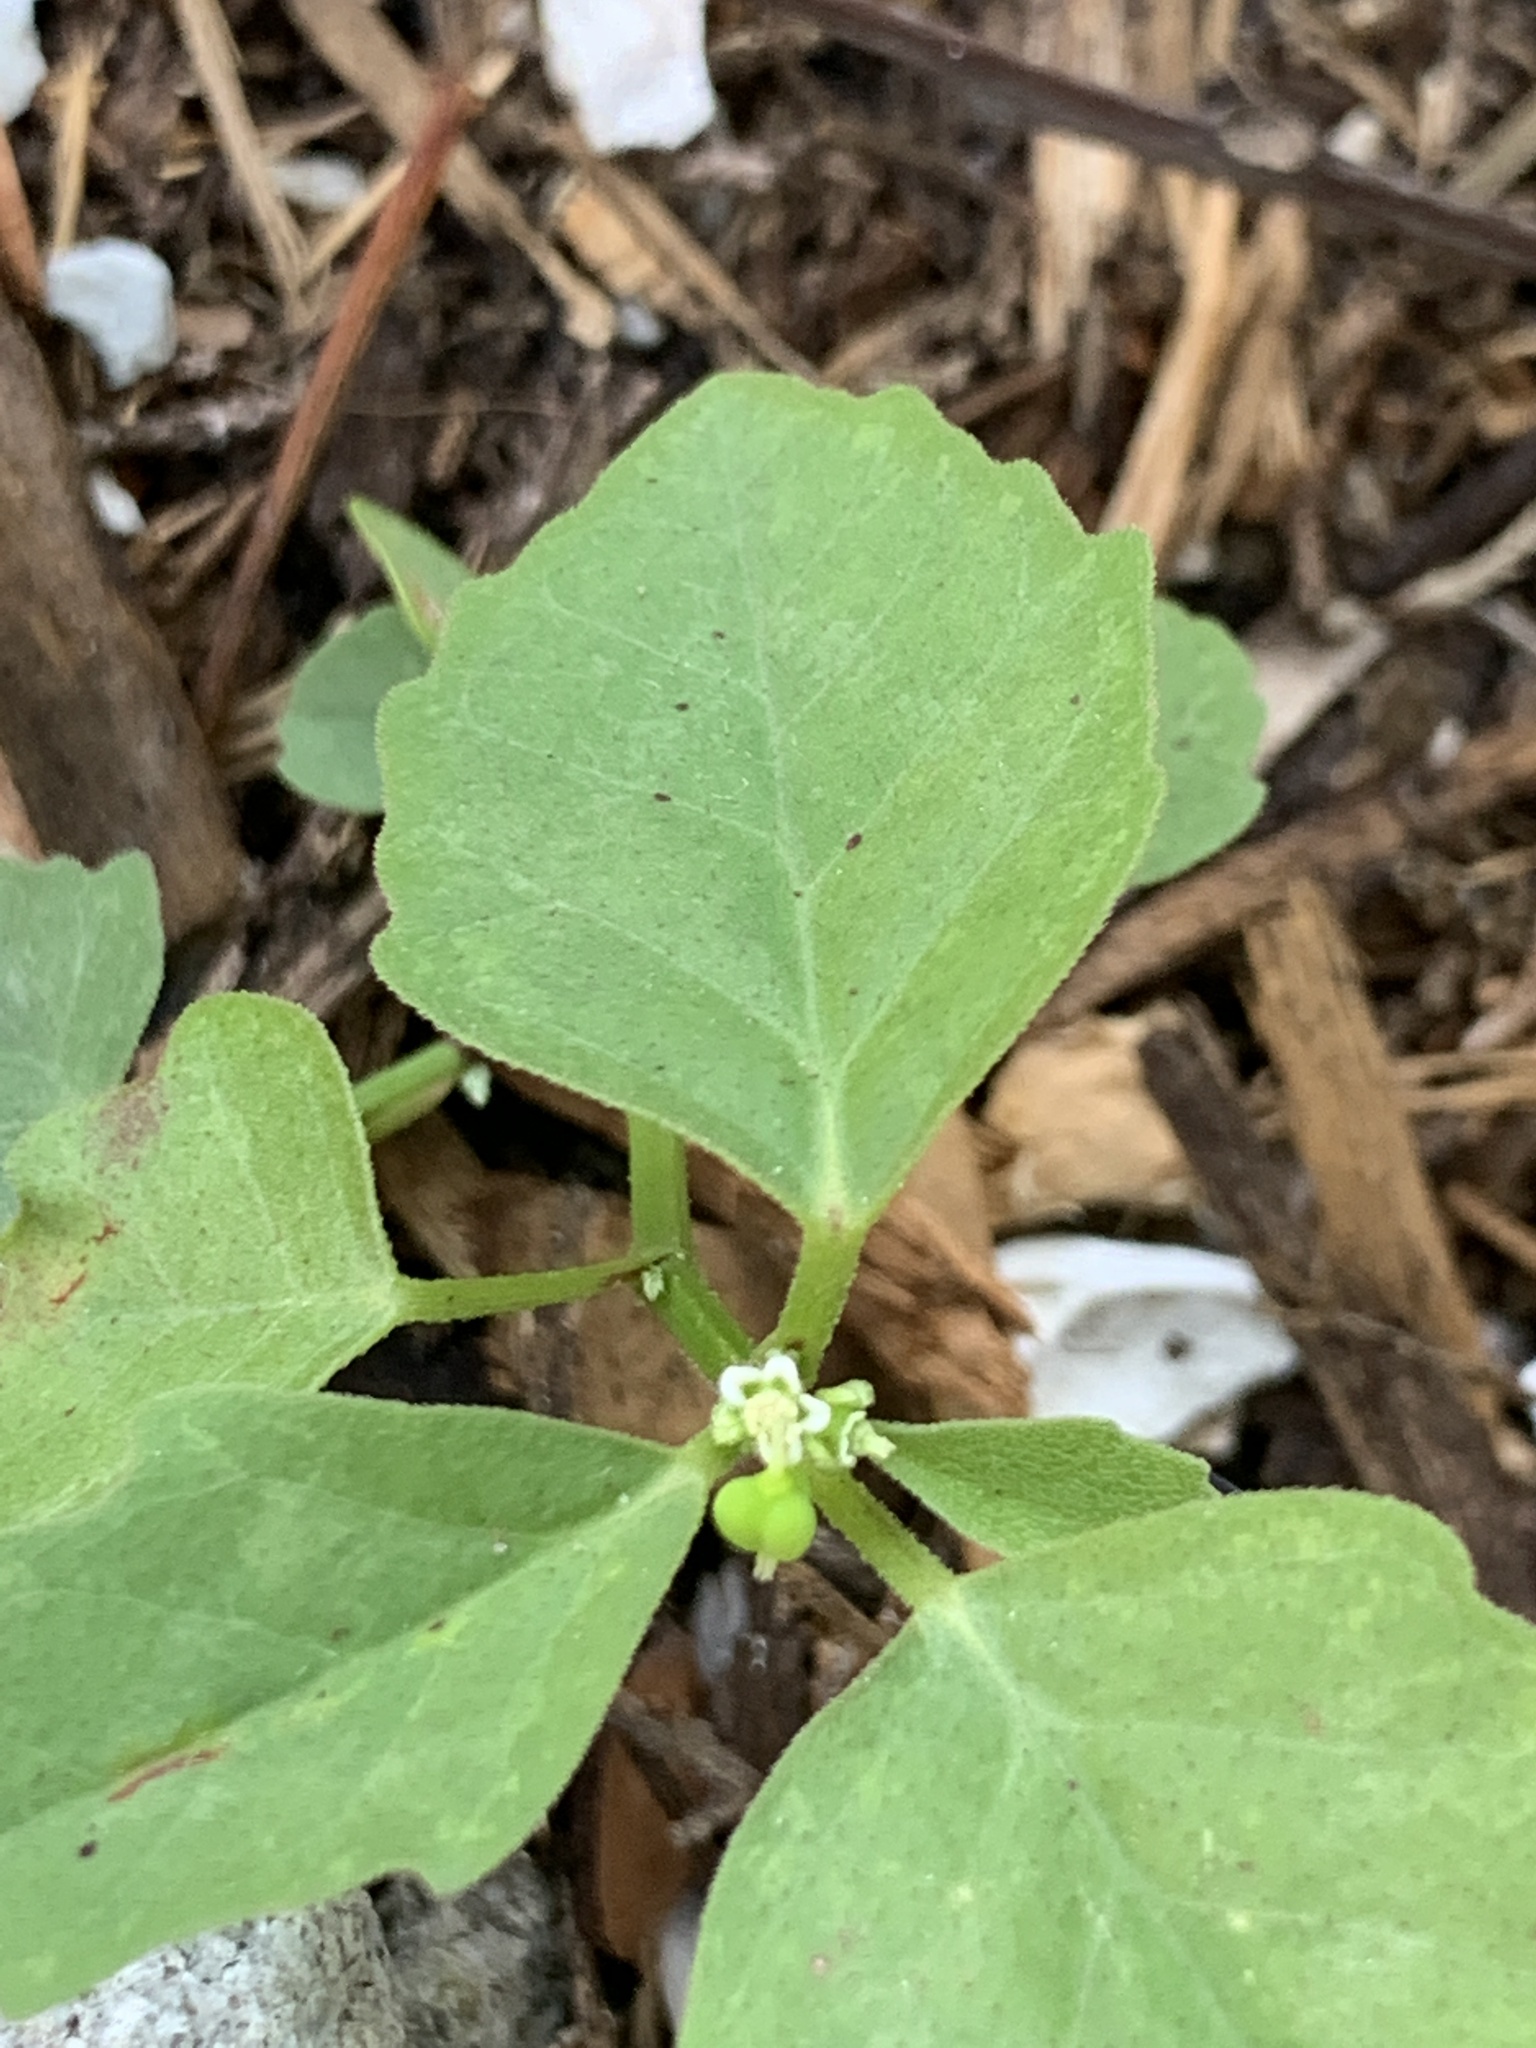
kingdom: Plantae
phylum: Tracheophyta
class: Magnoliopsida
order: Malpighiales
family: Euphorbiaceae
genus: Euphorbia
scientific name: Euphorbia graminea
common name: Grassleaf spurge
